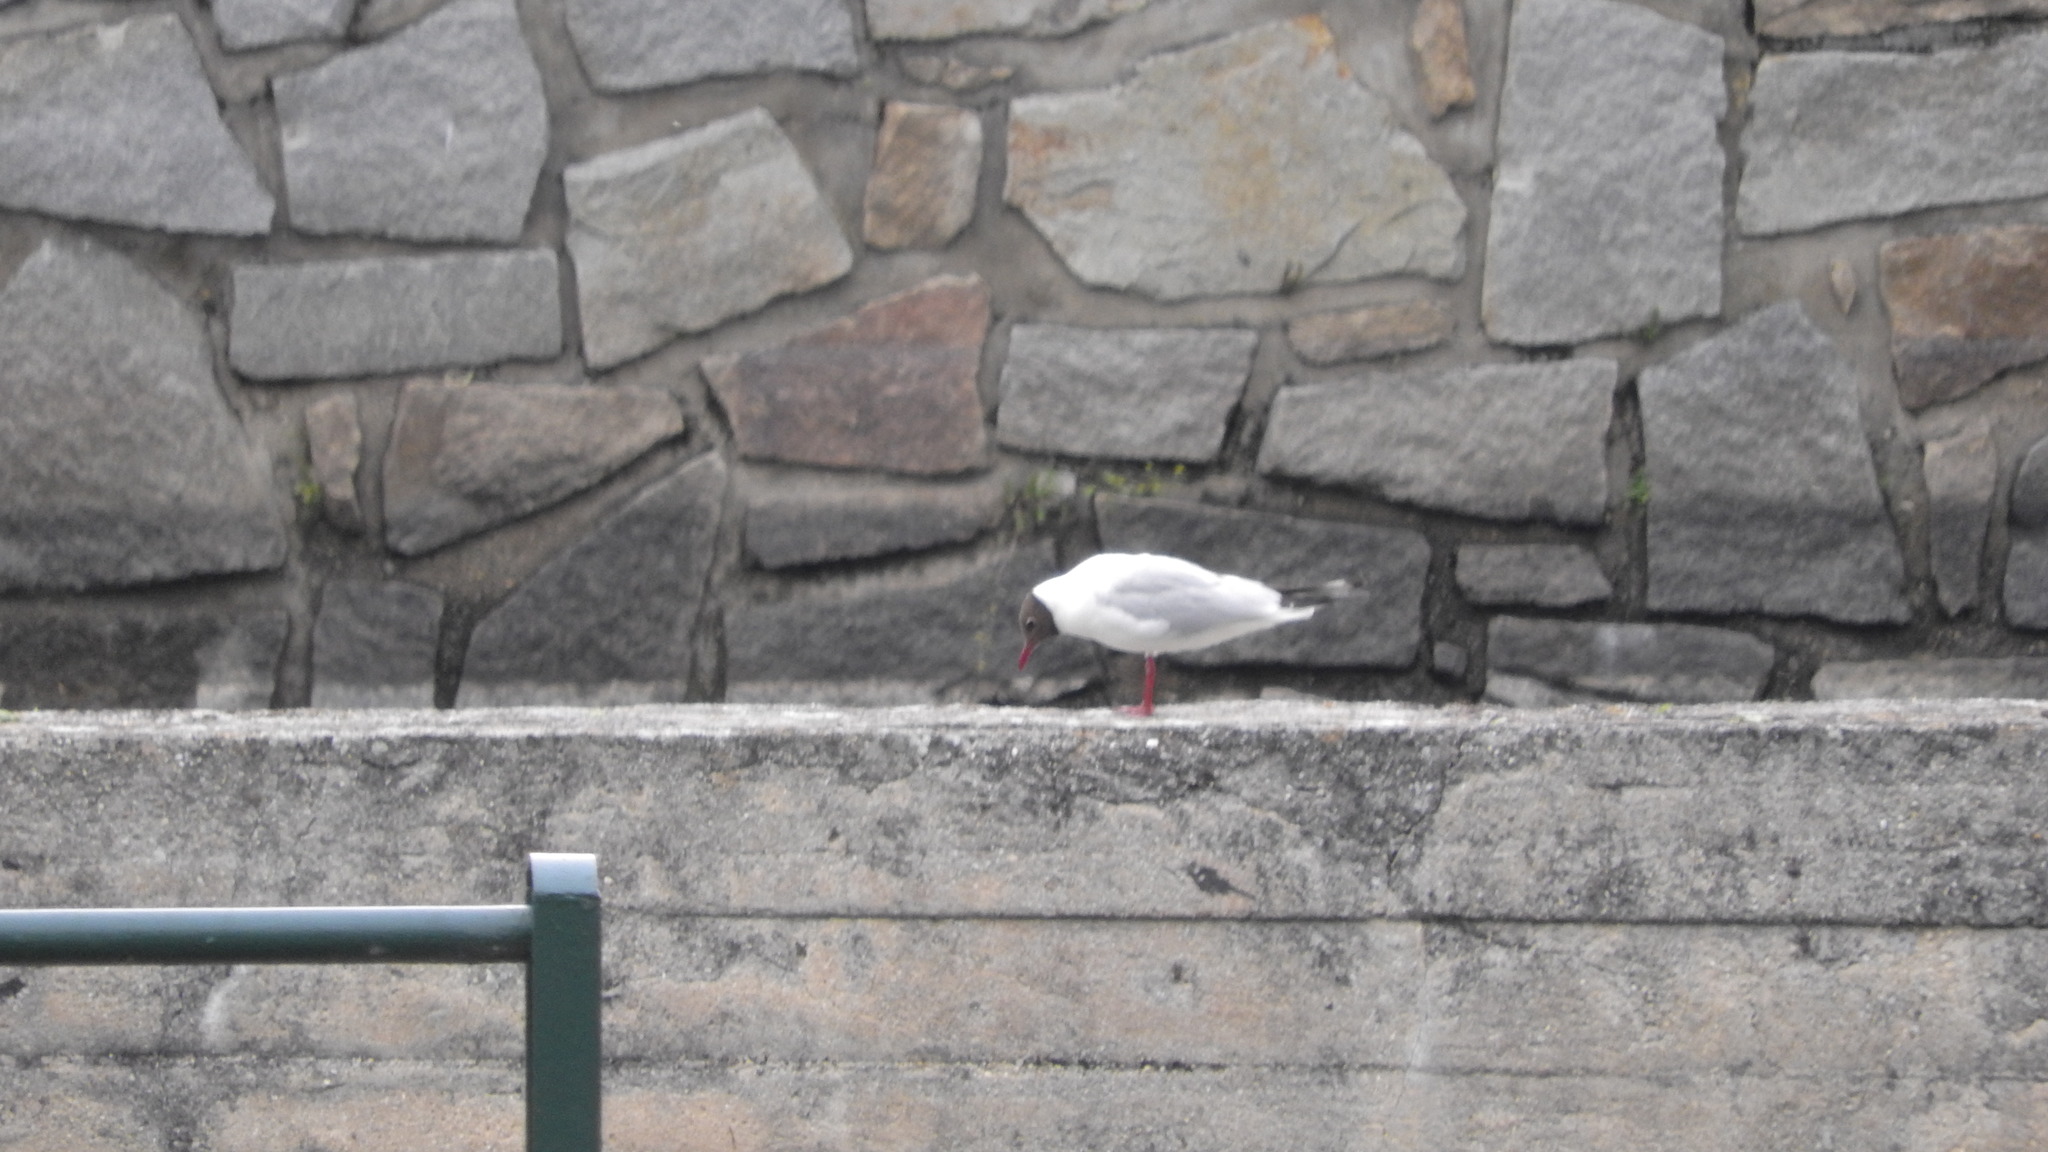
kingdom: Animalia
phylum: Chordata
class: Aves
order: Charadriiformes
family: Laridae
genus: Chroicocephalus
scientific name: Chroicocephalus ridibundus
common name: Black-headed gull
